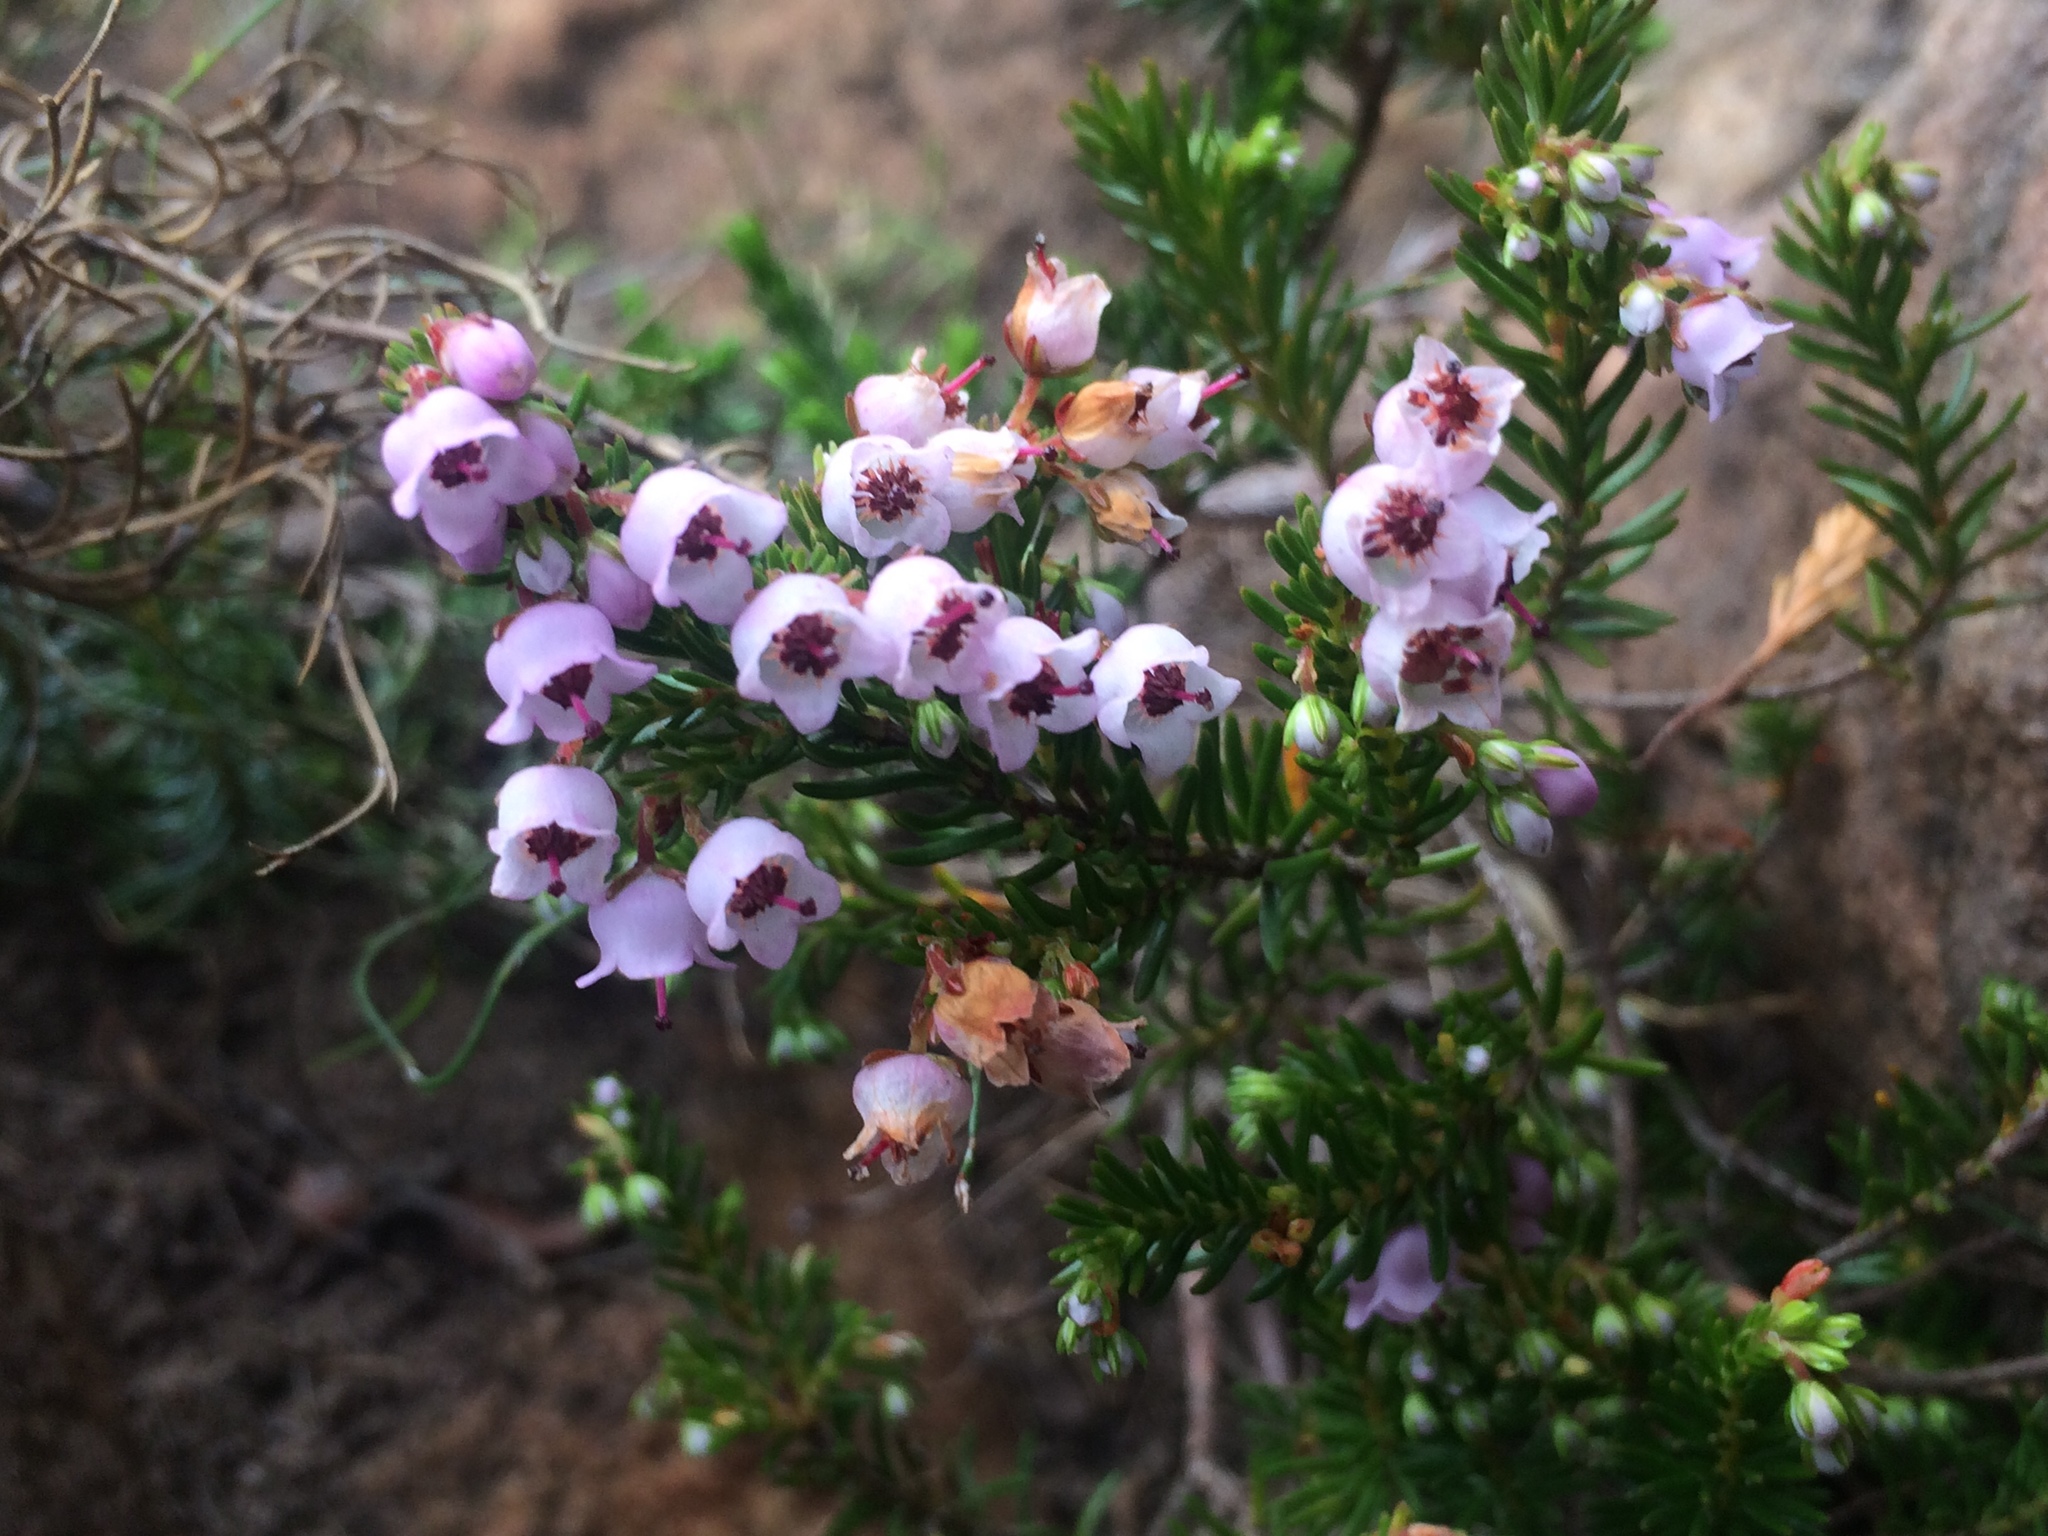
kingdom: Plantae
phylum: Tracheophyta
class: Magnoliopsida
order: Ericales
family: Ericaceae
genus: Erica
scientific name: Erica curvirostris
